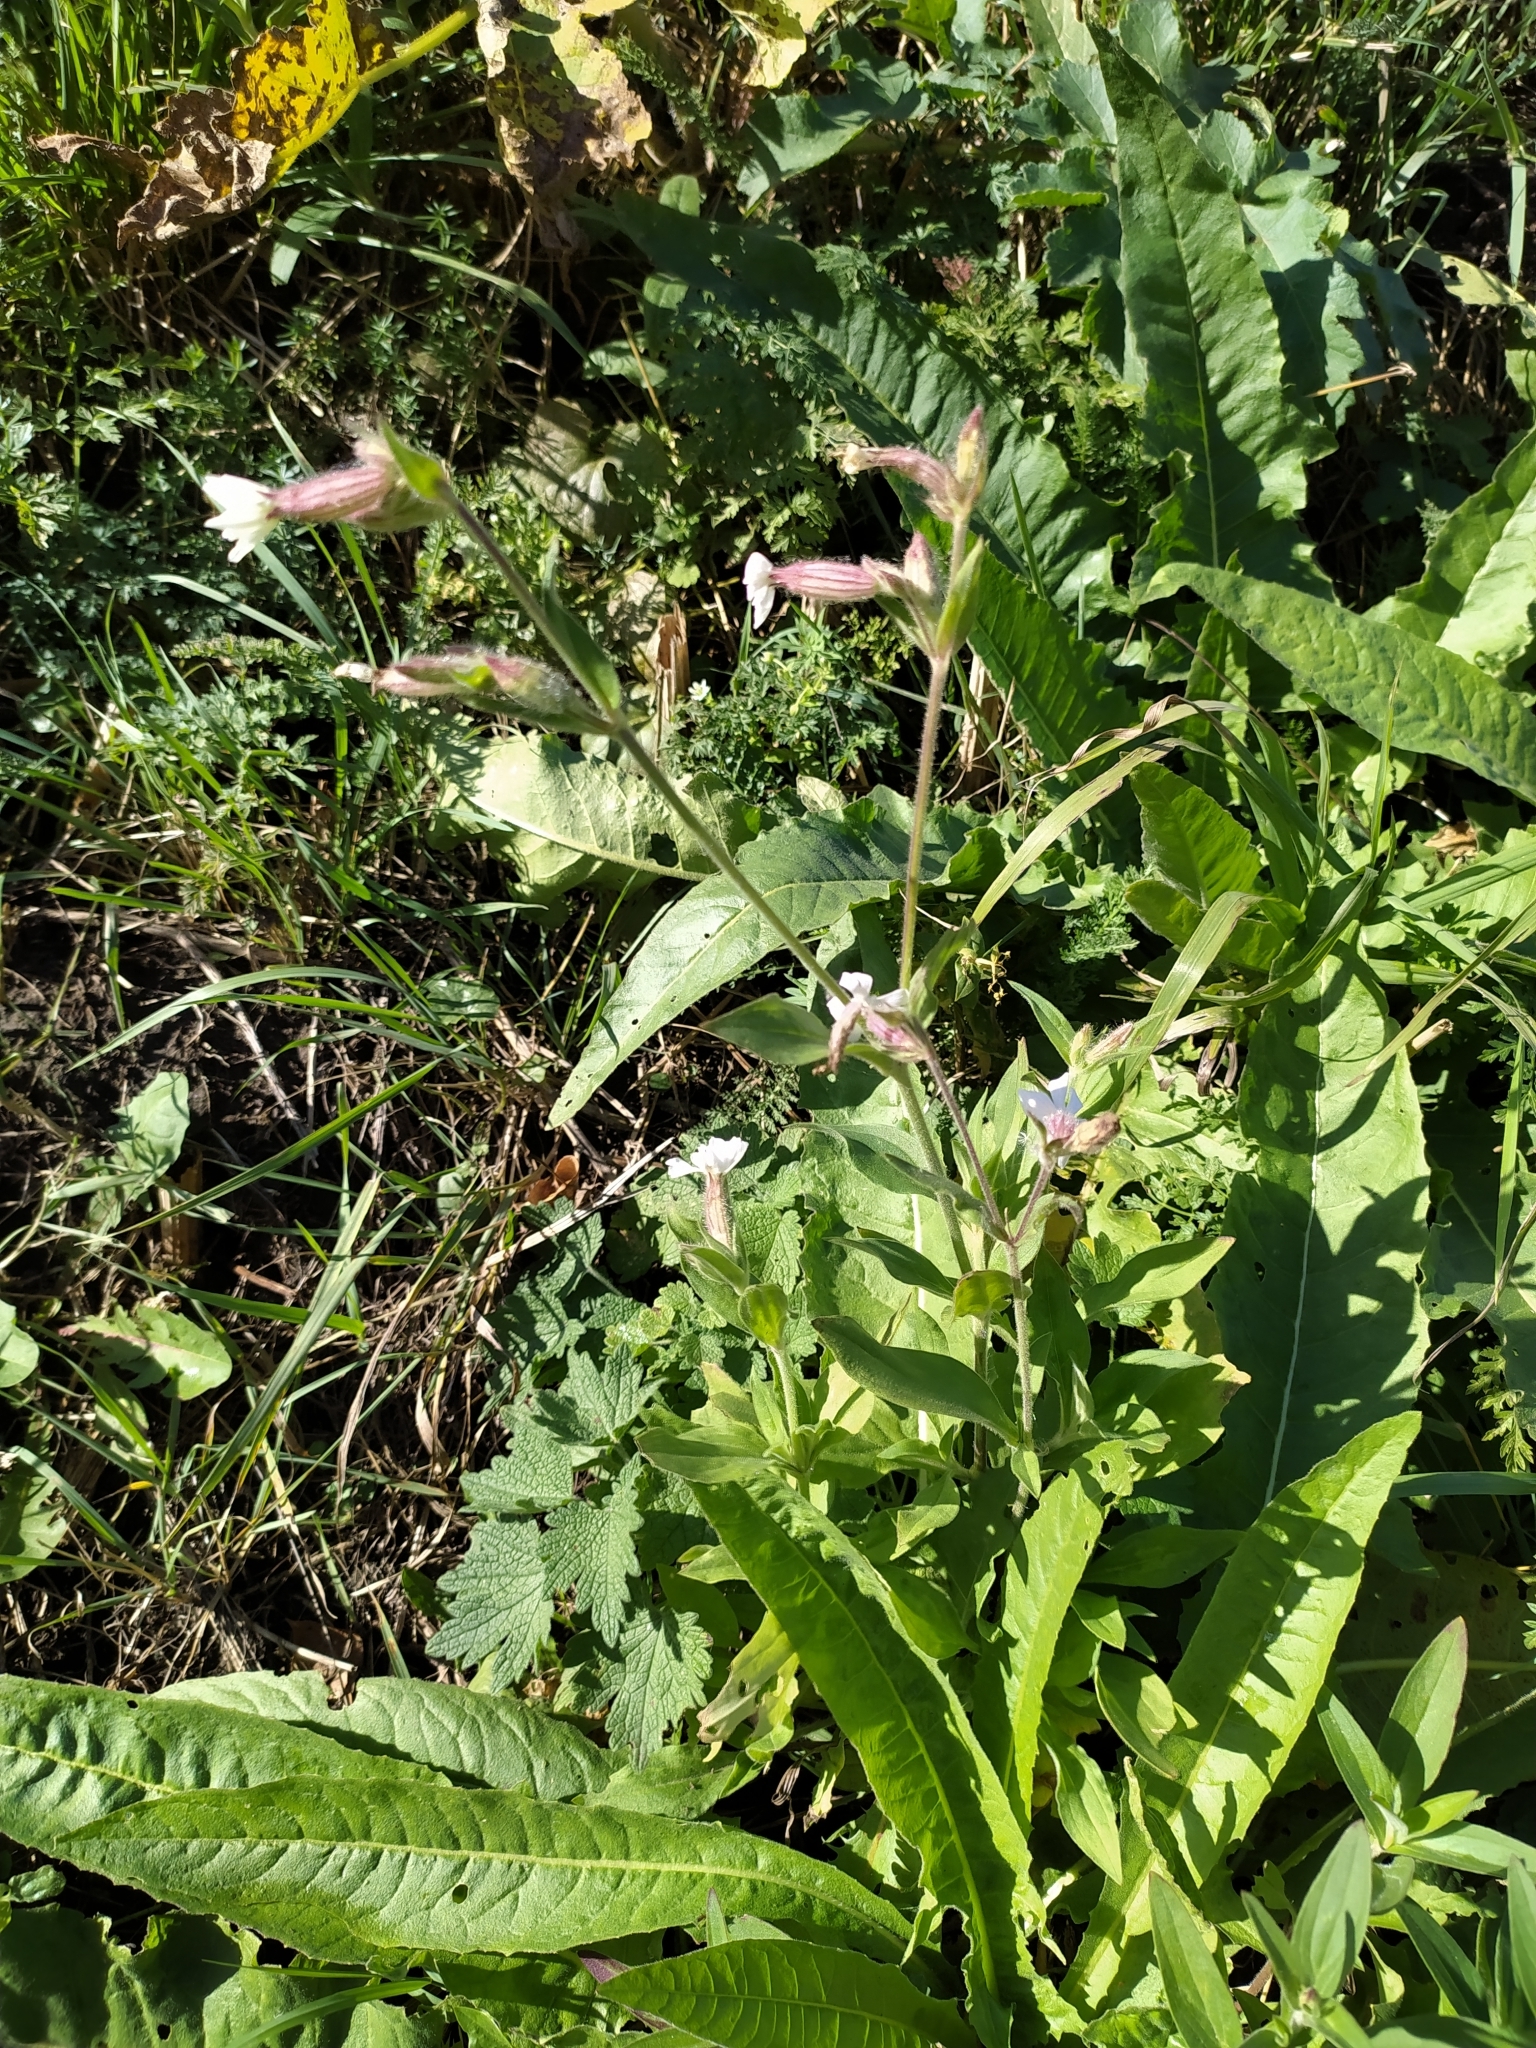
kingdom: Plantae
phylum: Tracheophyta
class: Magnoliopsida
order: Caryophyllales
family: Caryophyllaceae
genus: Silene
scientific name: Silene latifolia
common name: White campion
